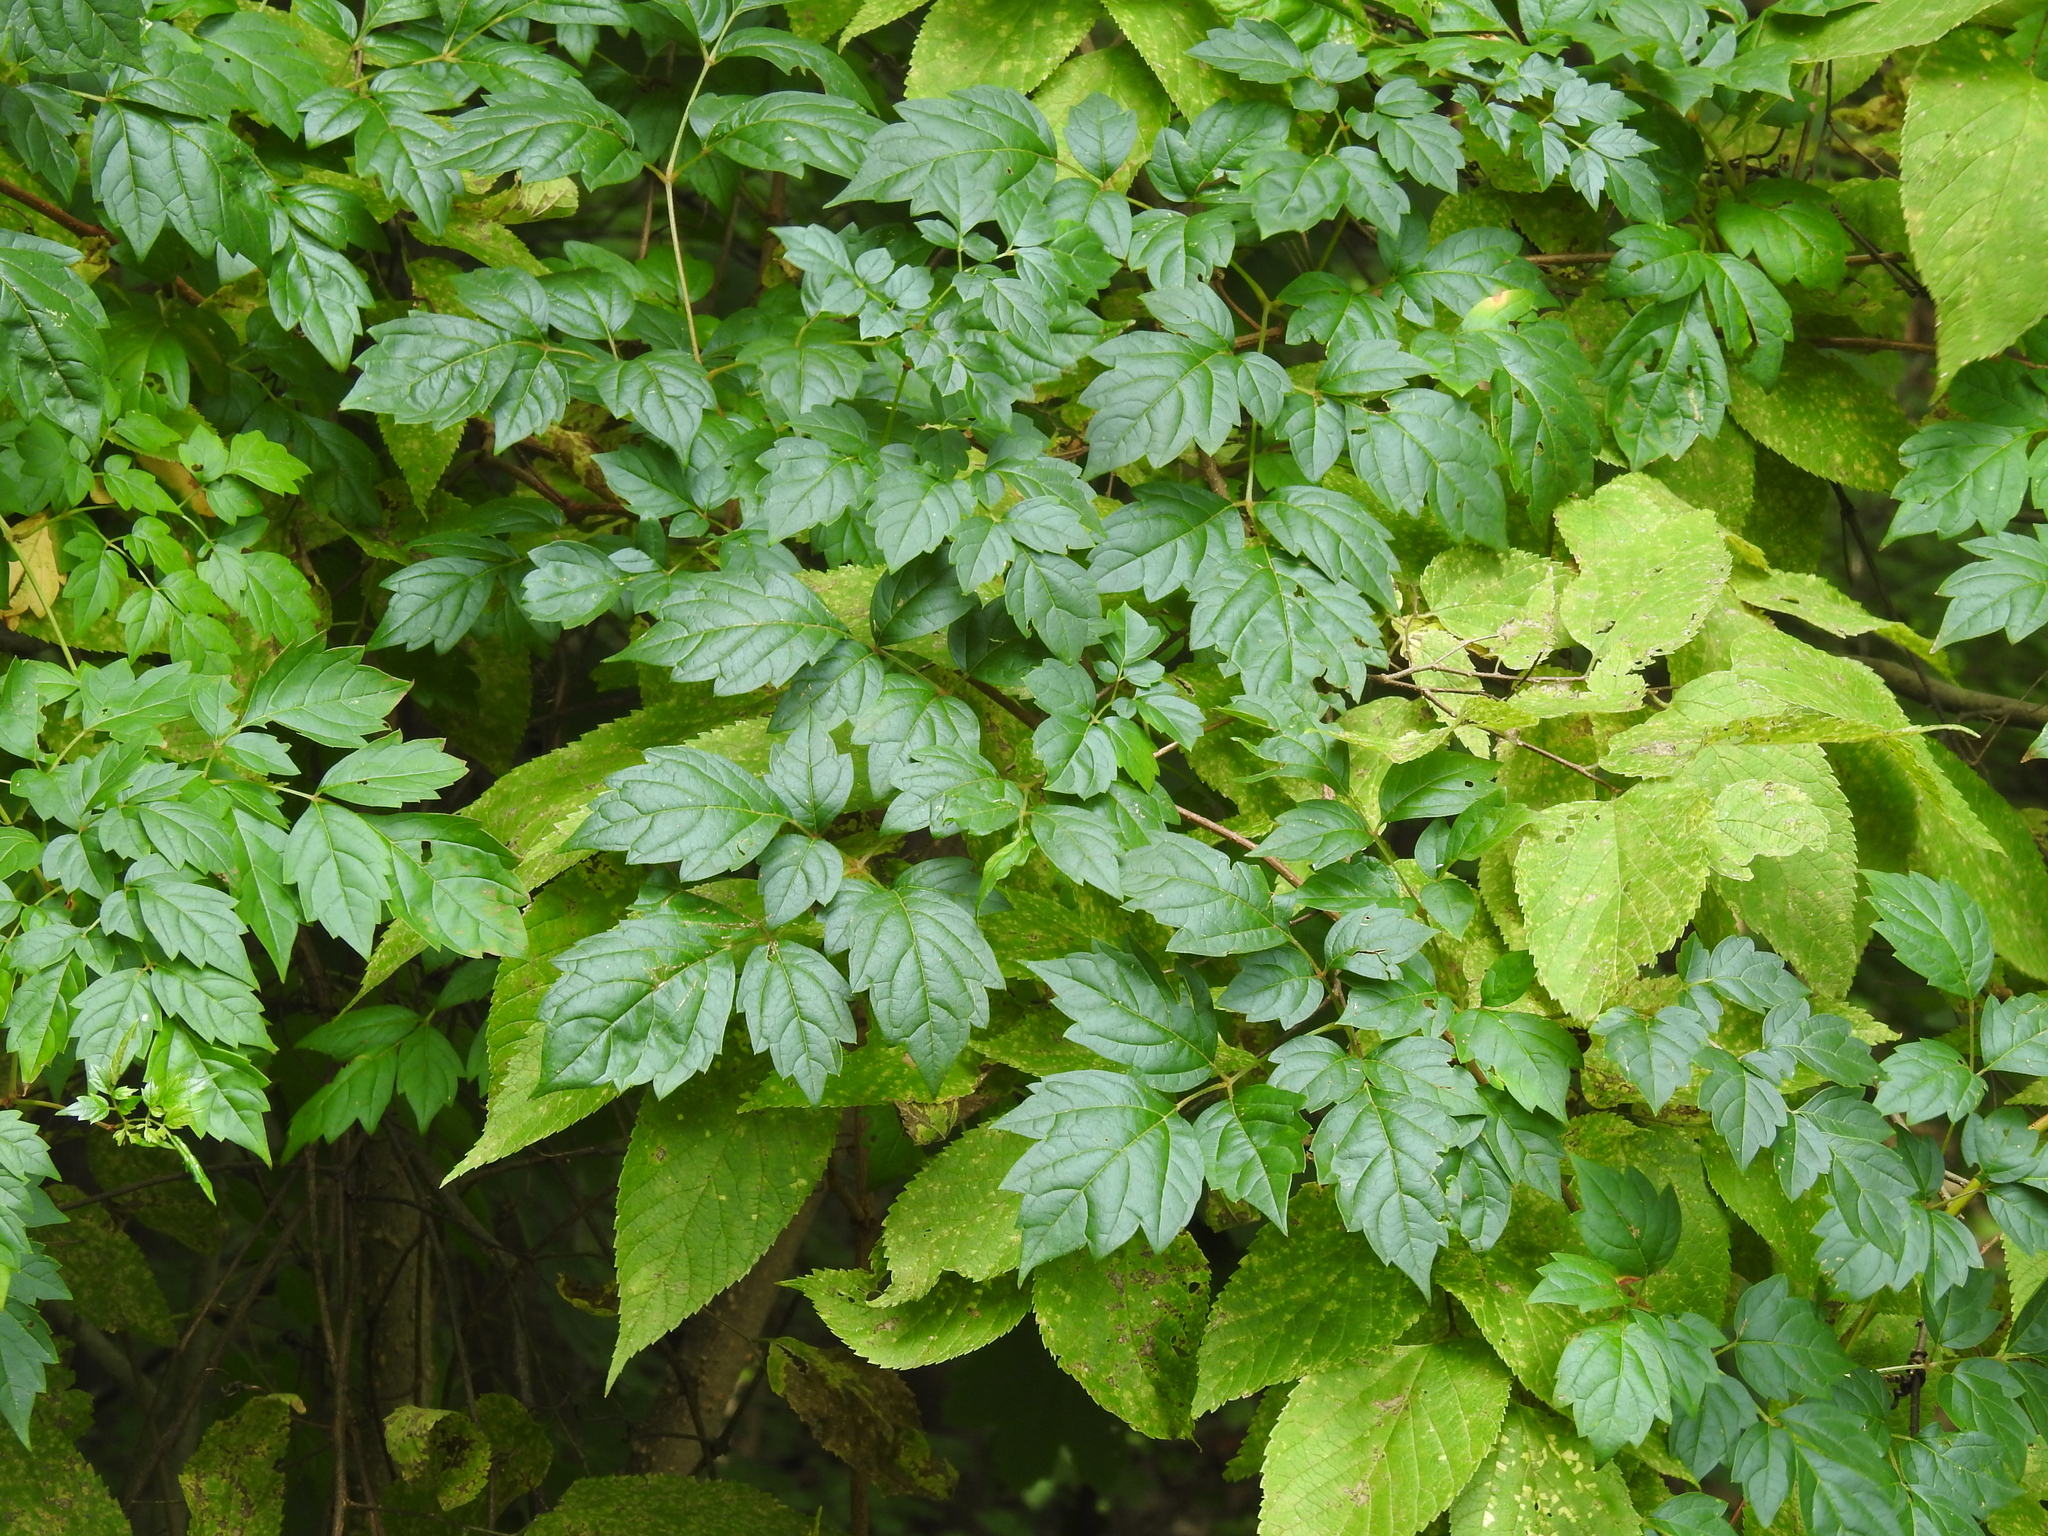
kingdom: Plantae
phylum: Tracheophyta
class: Magnoliopsida
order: Vitales
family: Vitaceae
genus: Nekemias
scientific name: Nekemias arborea
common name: Peppervine
